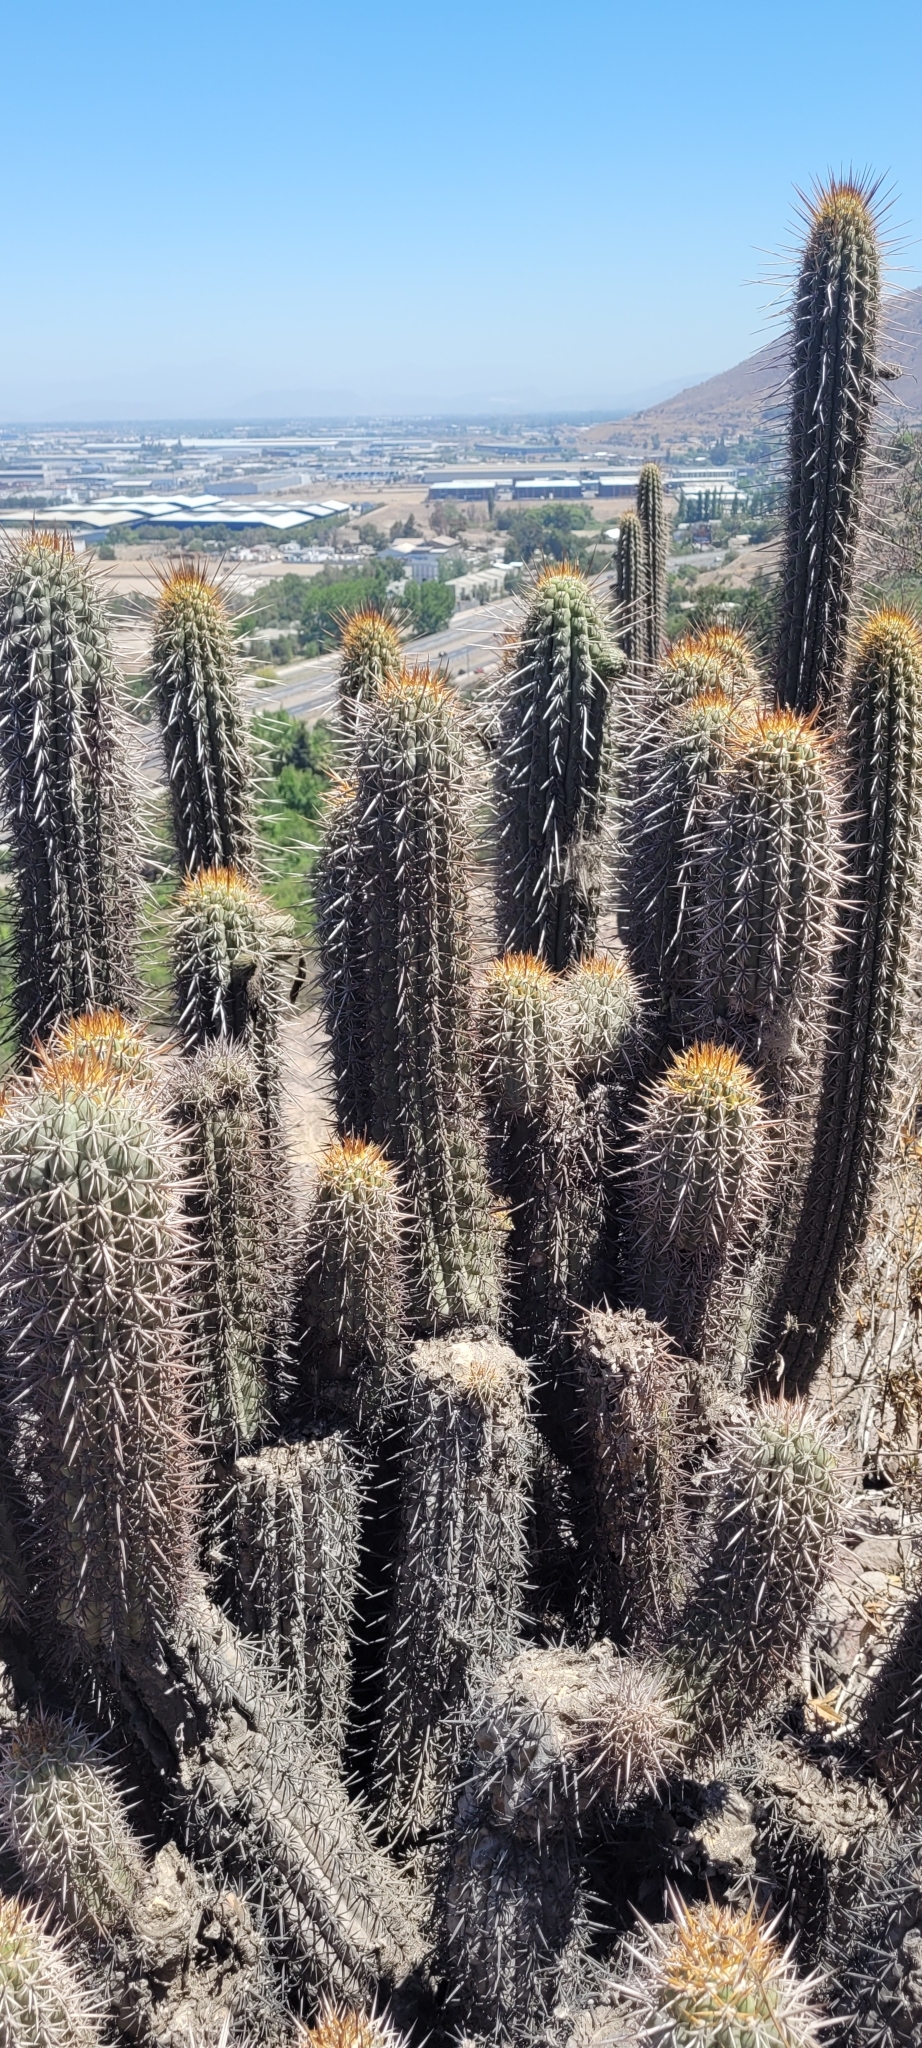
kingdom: Plantae
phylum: Tracheophyta
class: Magnoliopsida
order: Caryophyllales
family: Cactaceae
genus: Leucostele
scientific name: Leucostele chiloensis
